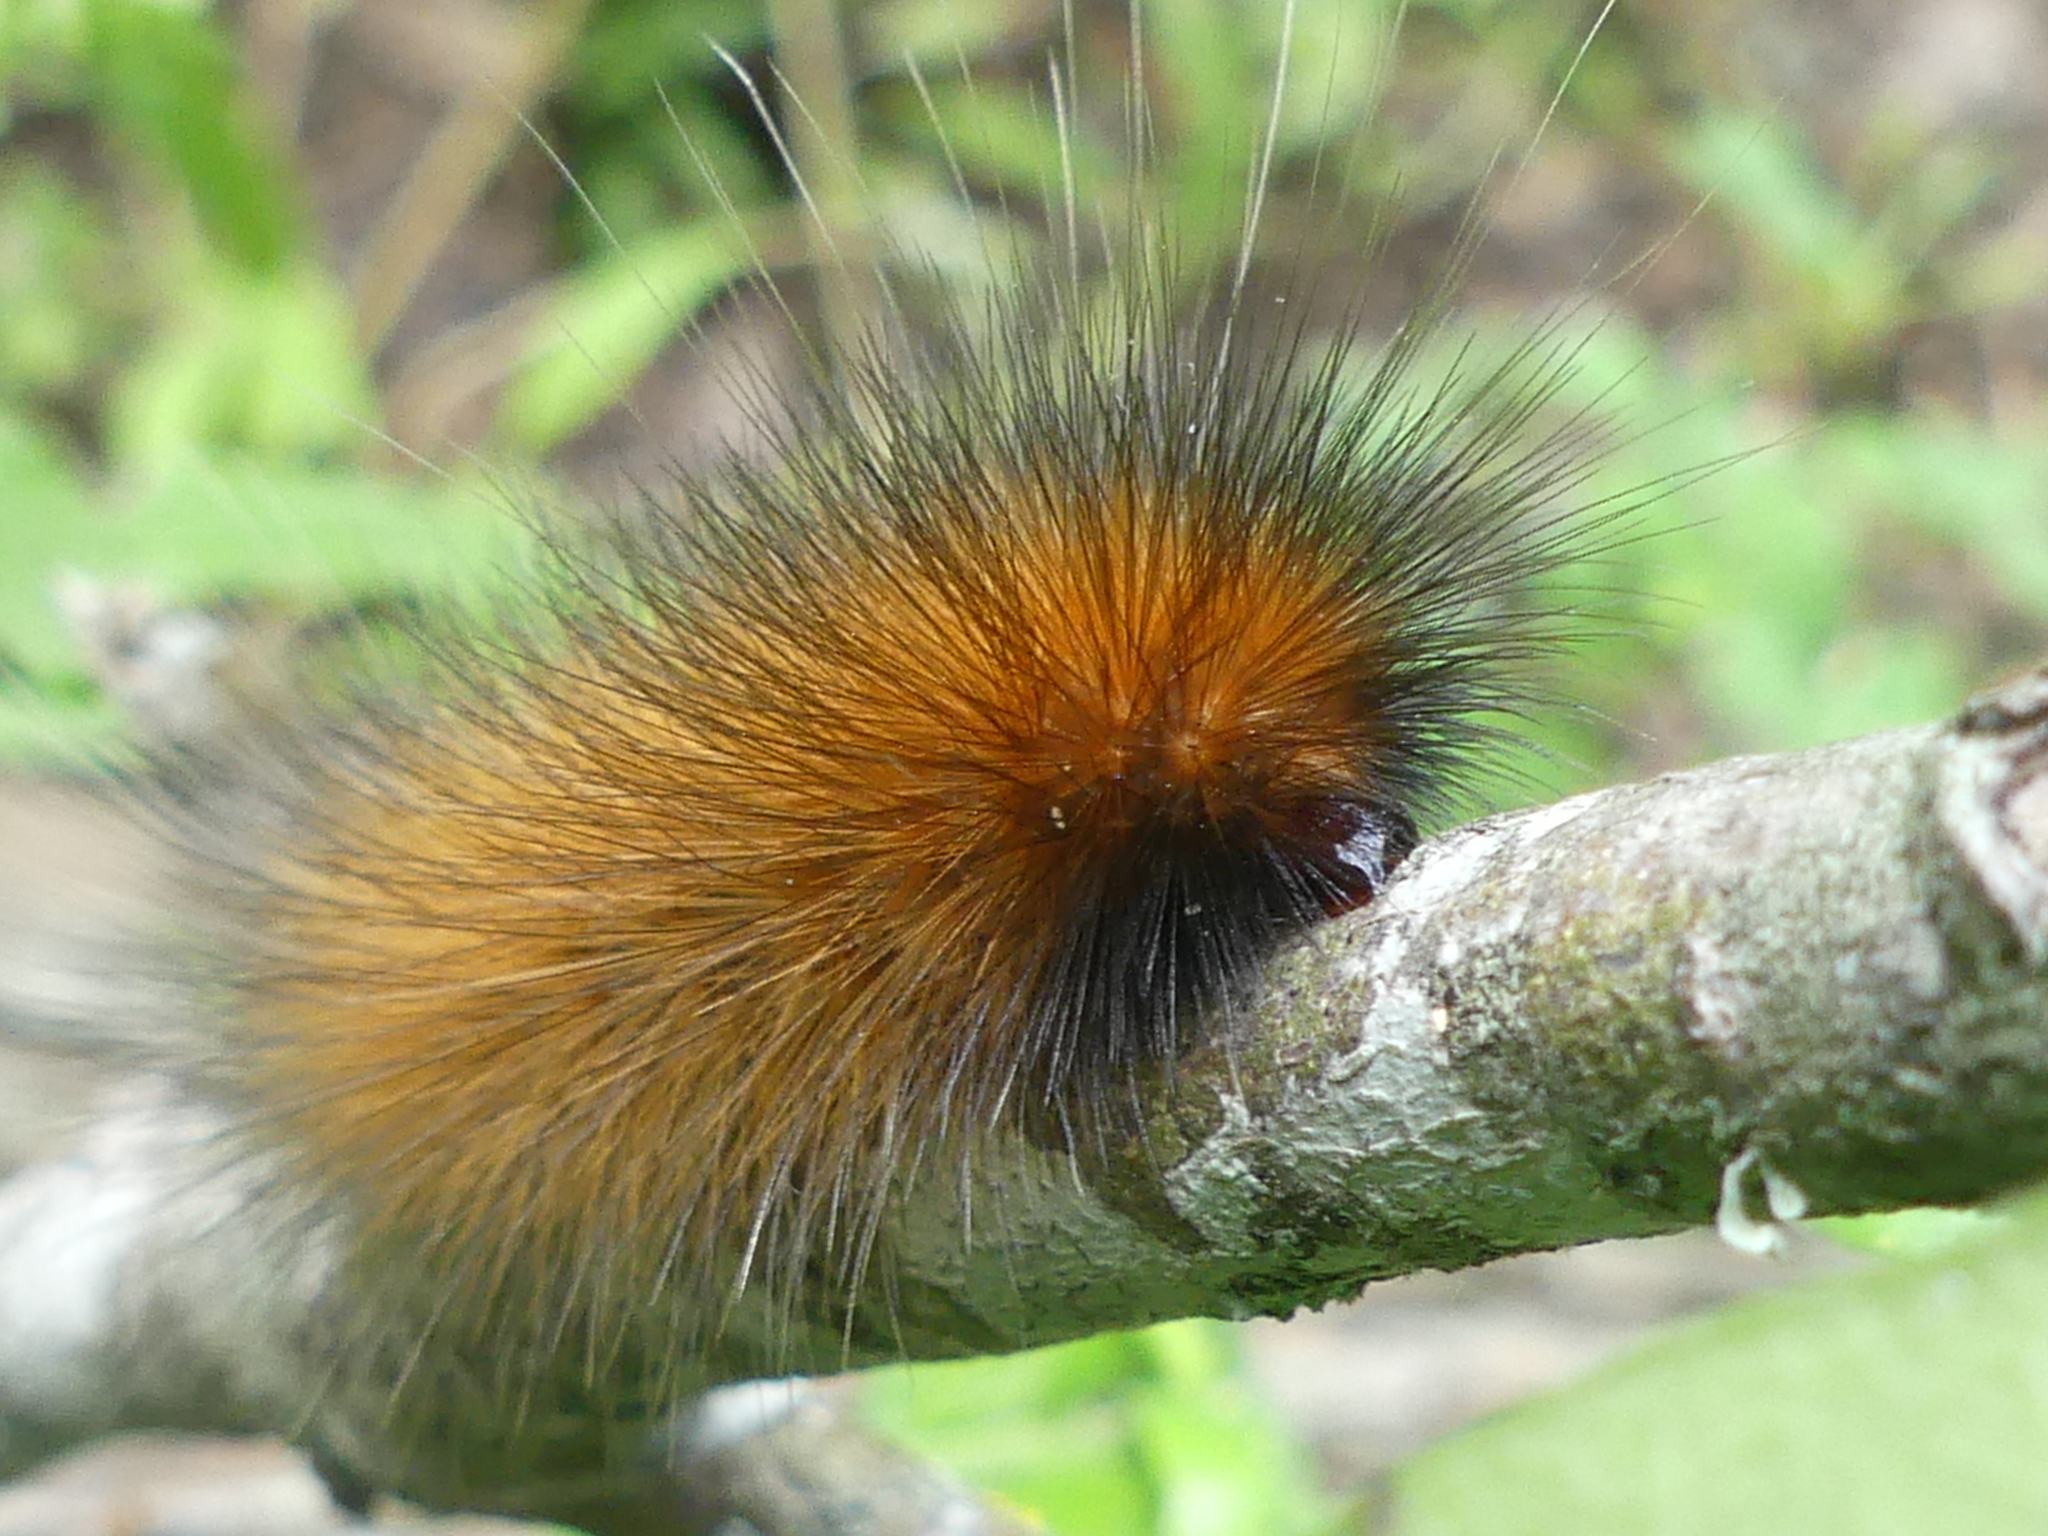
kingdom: Animalia
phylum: Arthropoda
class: Insecta
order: Lepidoptera
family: Erebidae
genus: Spilosoma
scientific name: Spilosoma virginica
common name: Virginia tiger moth
